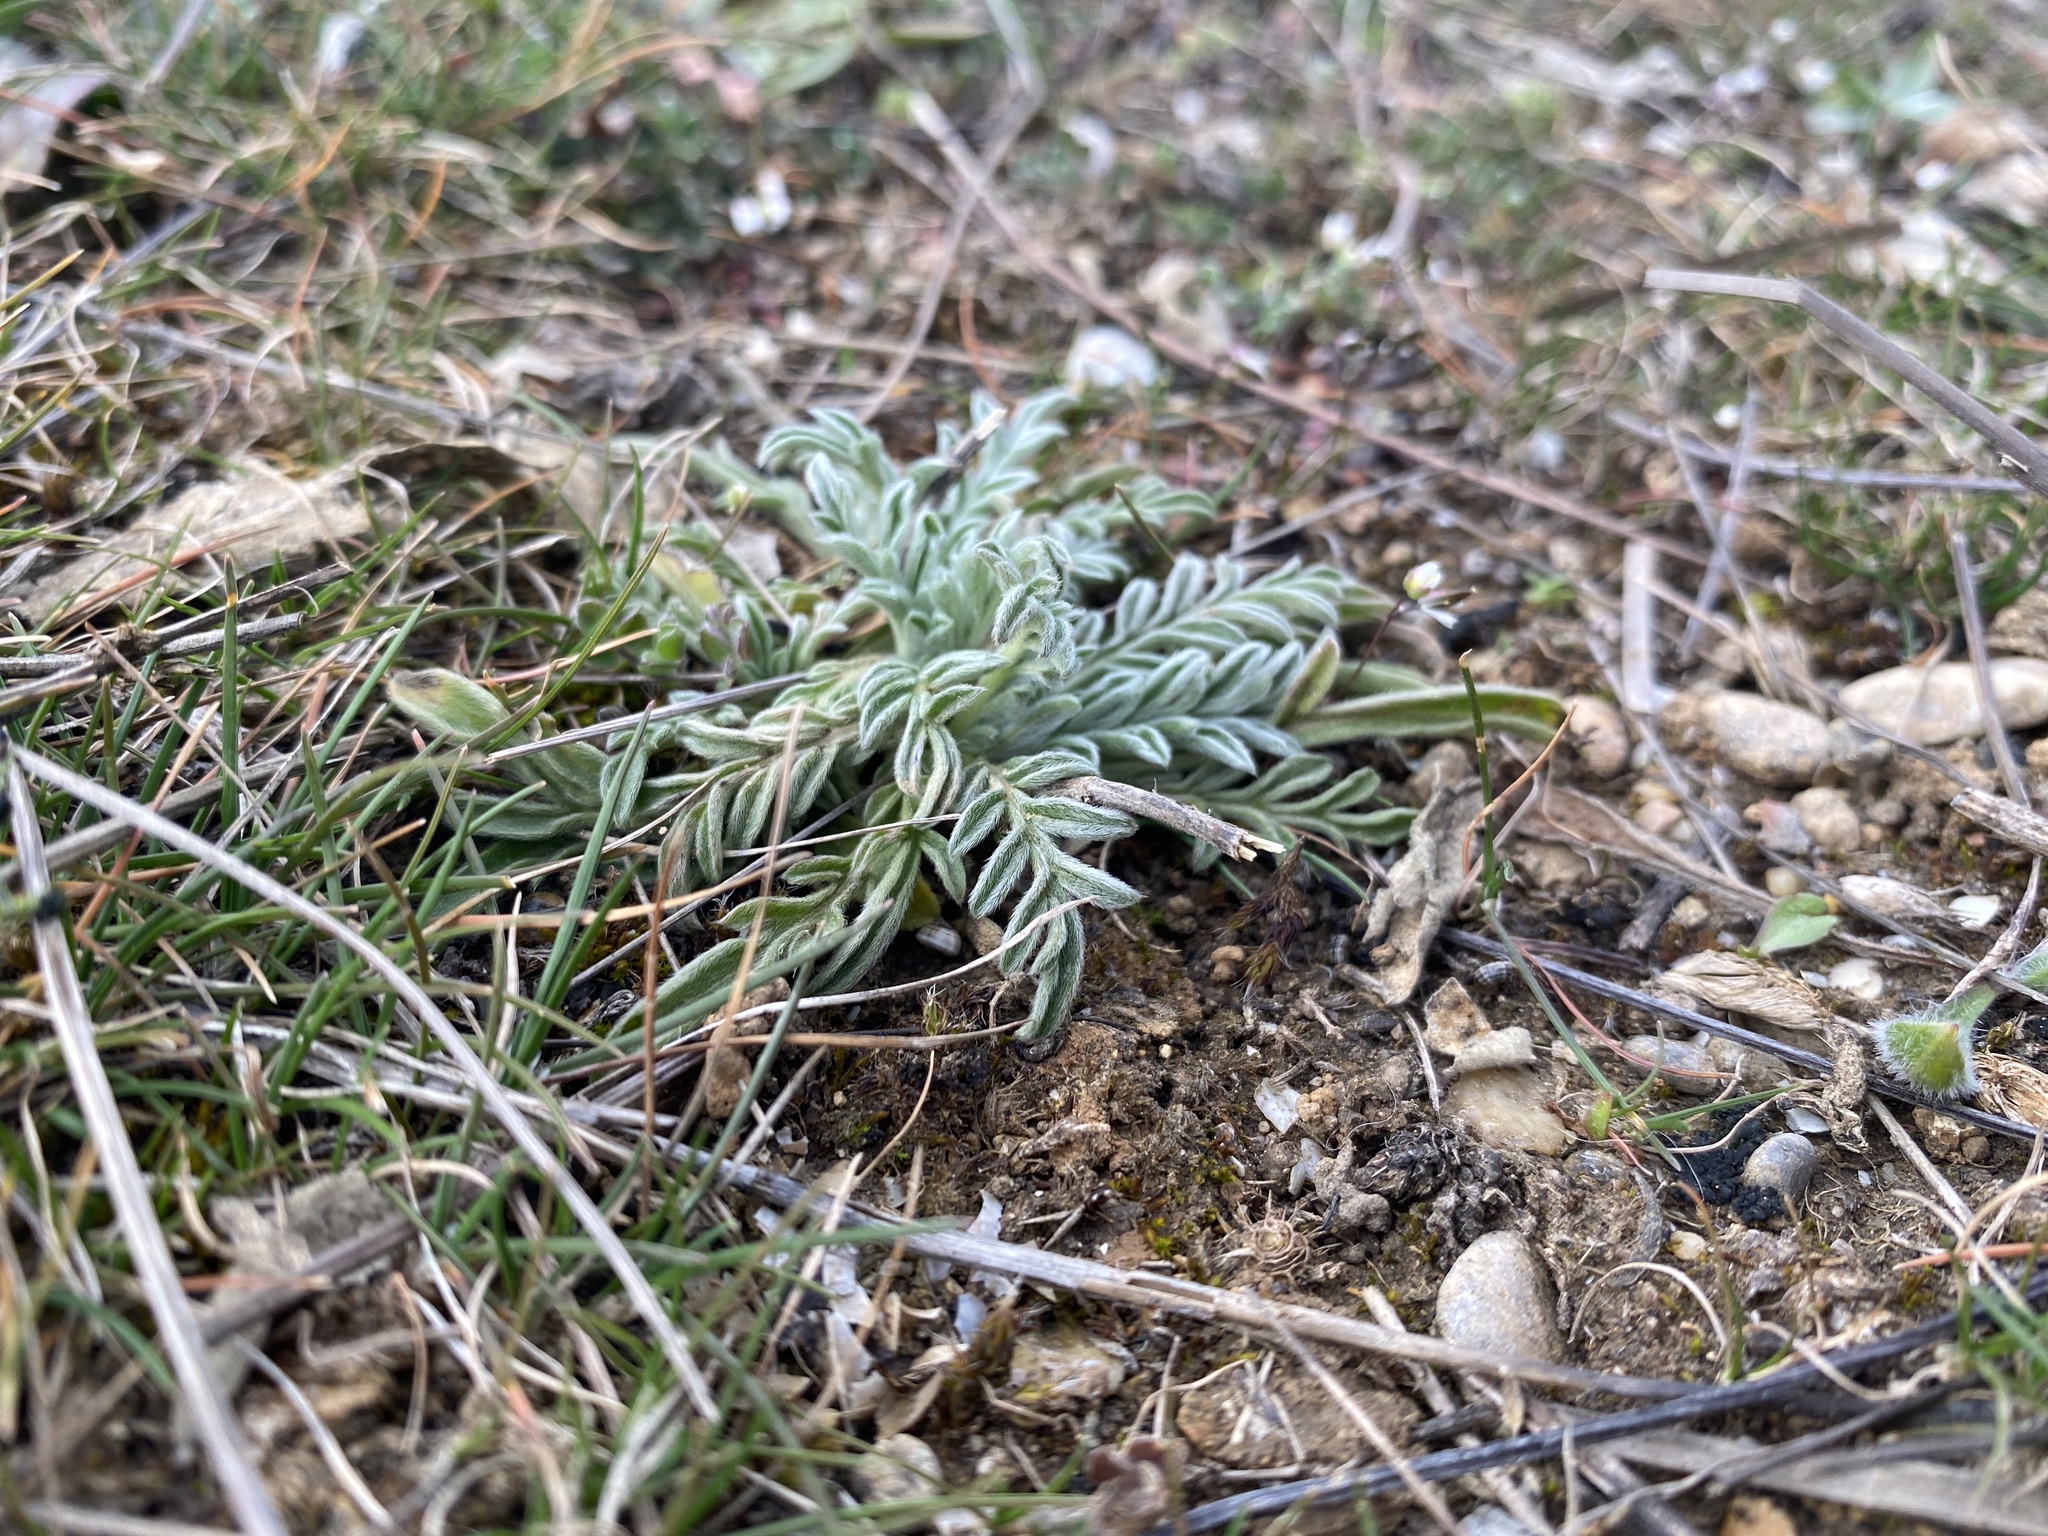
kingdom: Plantae
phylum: Tracheophyta
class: Magnoliopsida
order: Dipsacales
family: Caprifoliaceae
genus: Lomelosia
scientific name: Lomelosia argentea
